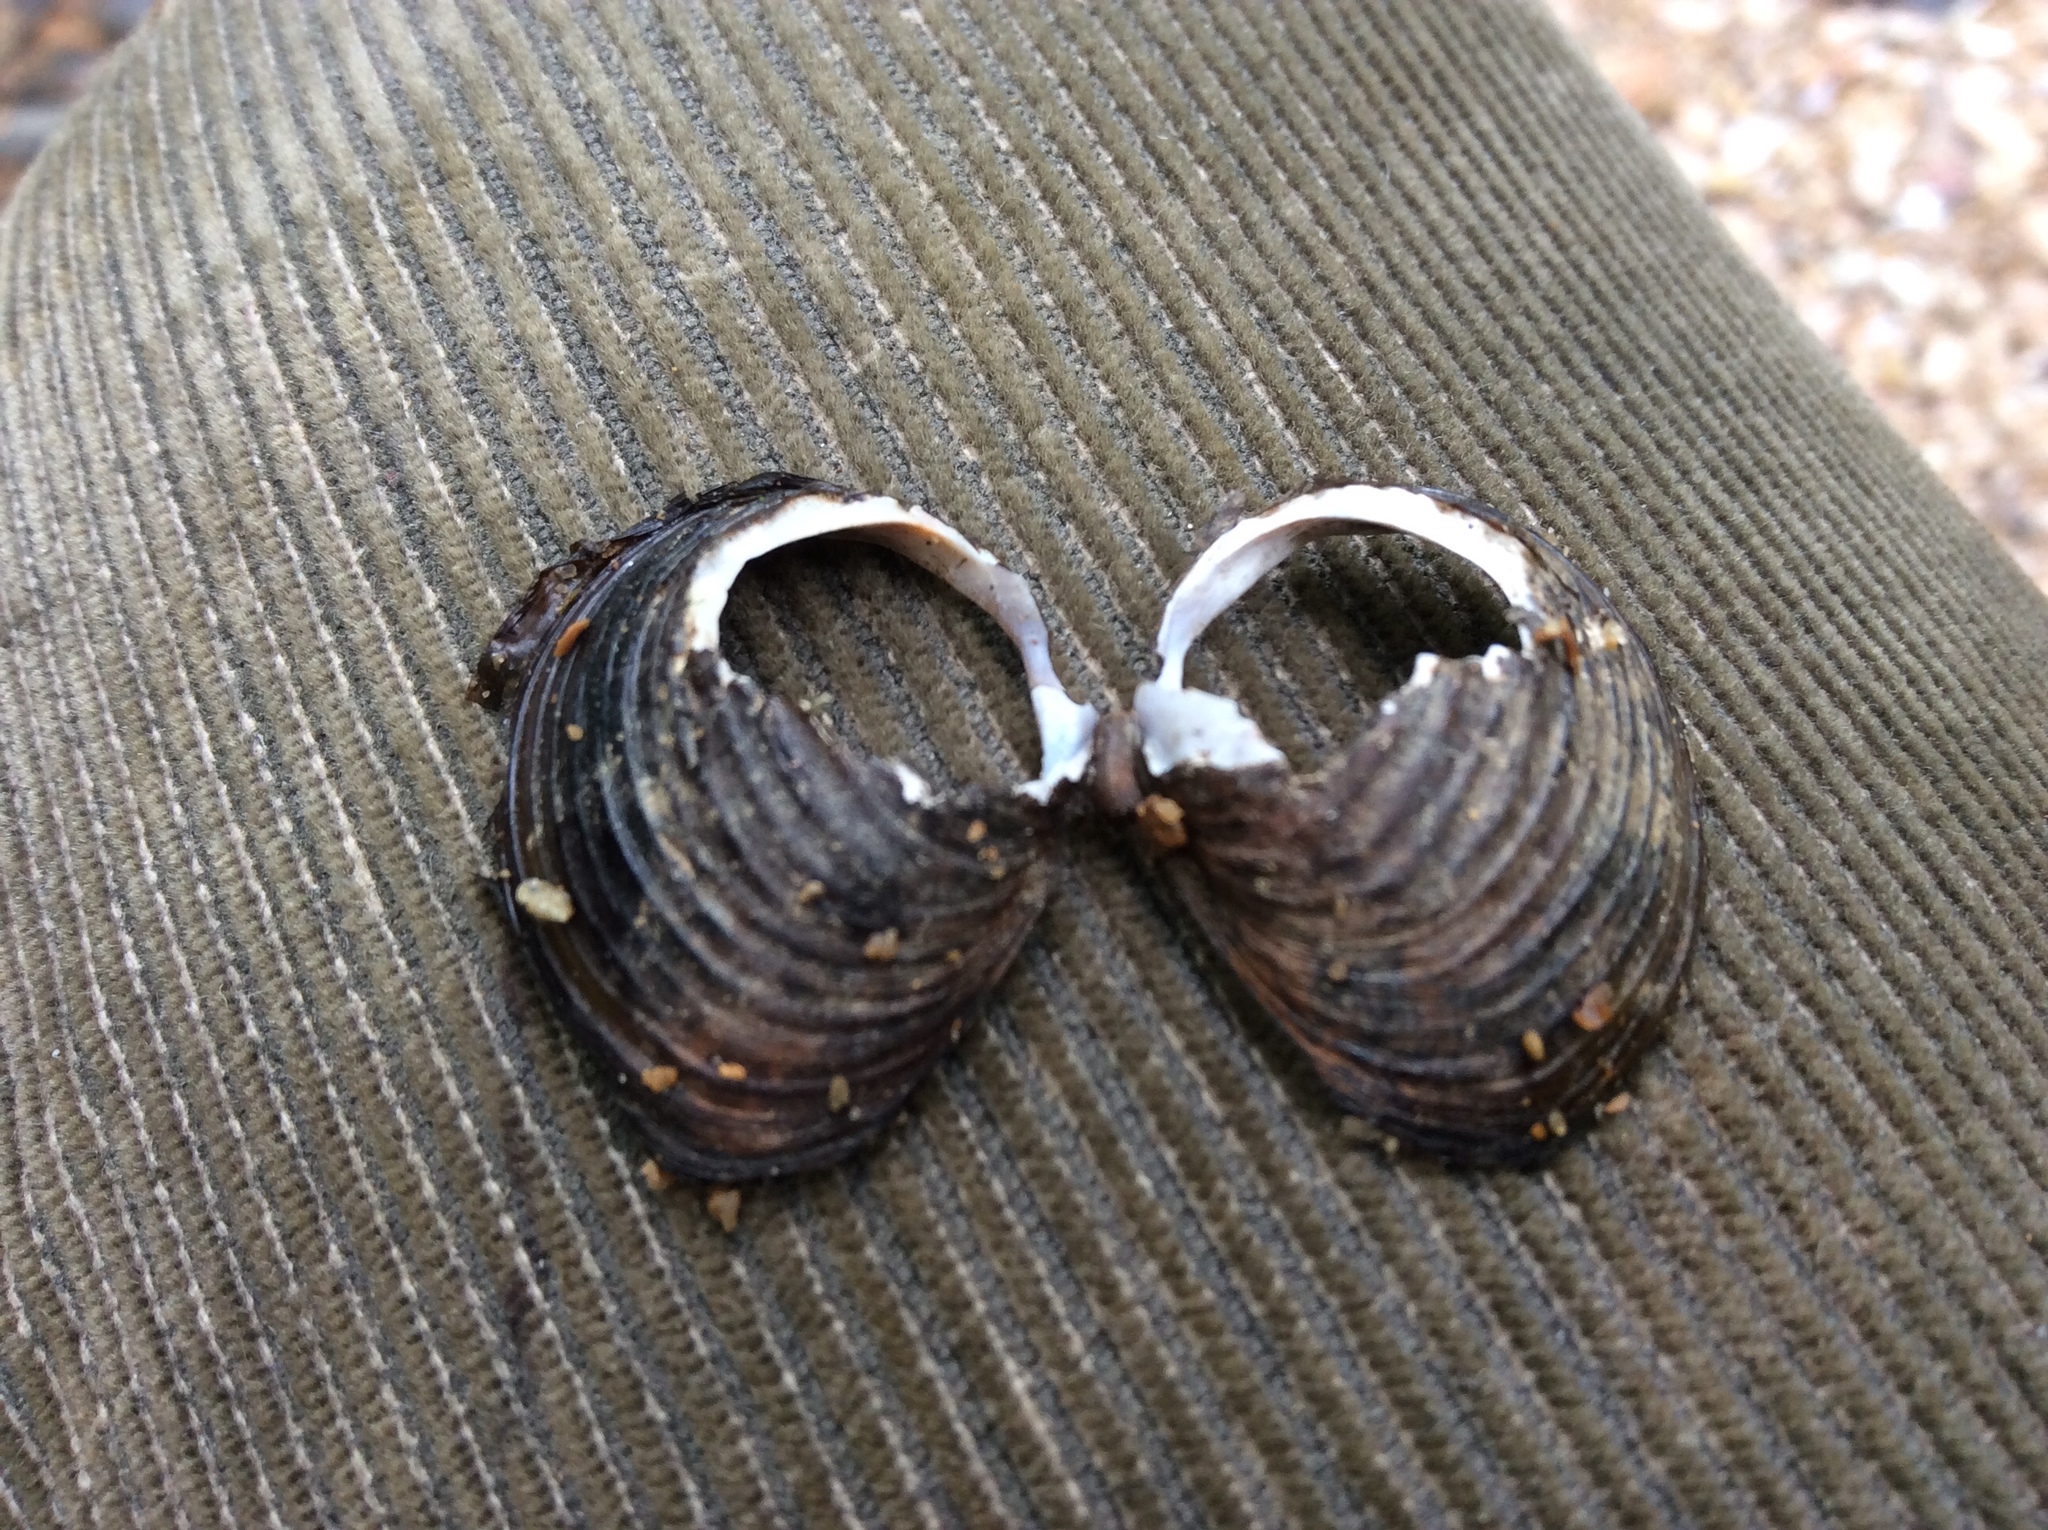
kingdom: Animalia
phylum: Mollusca
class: Bivalvia
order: Venerida
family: Cyrenidae
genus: Corbicula
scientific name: Corbicula fluminea
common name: Asian clam
